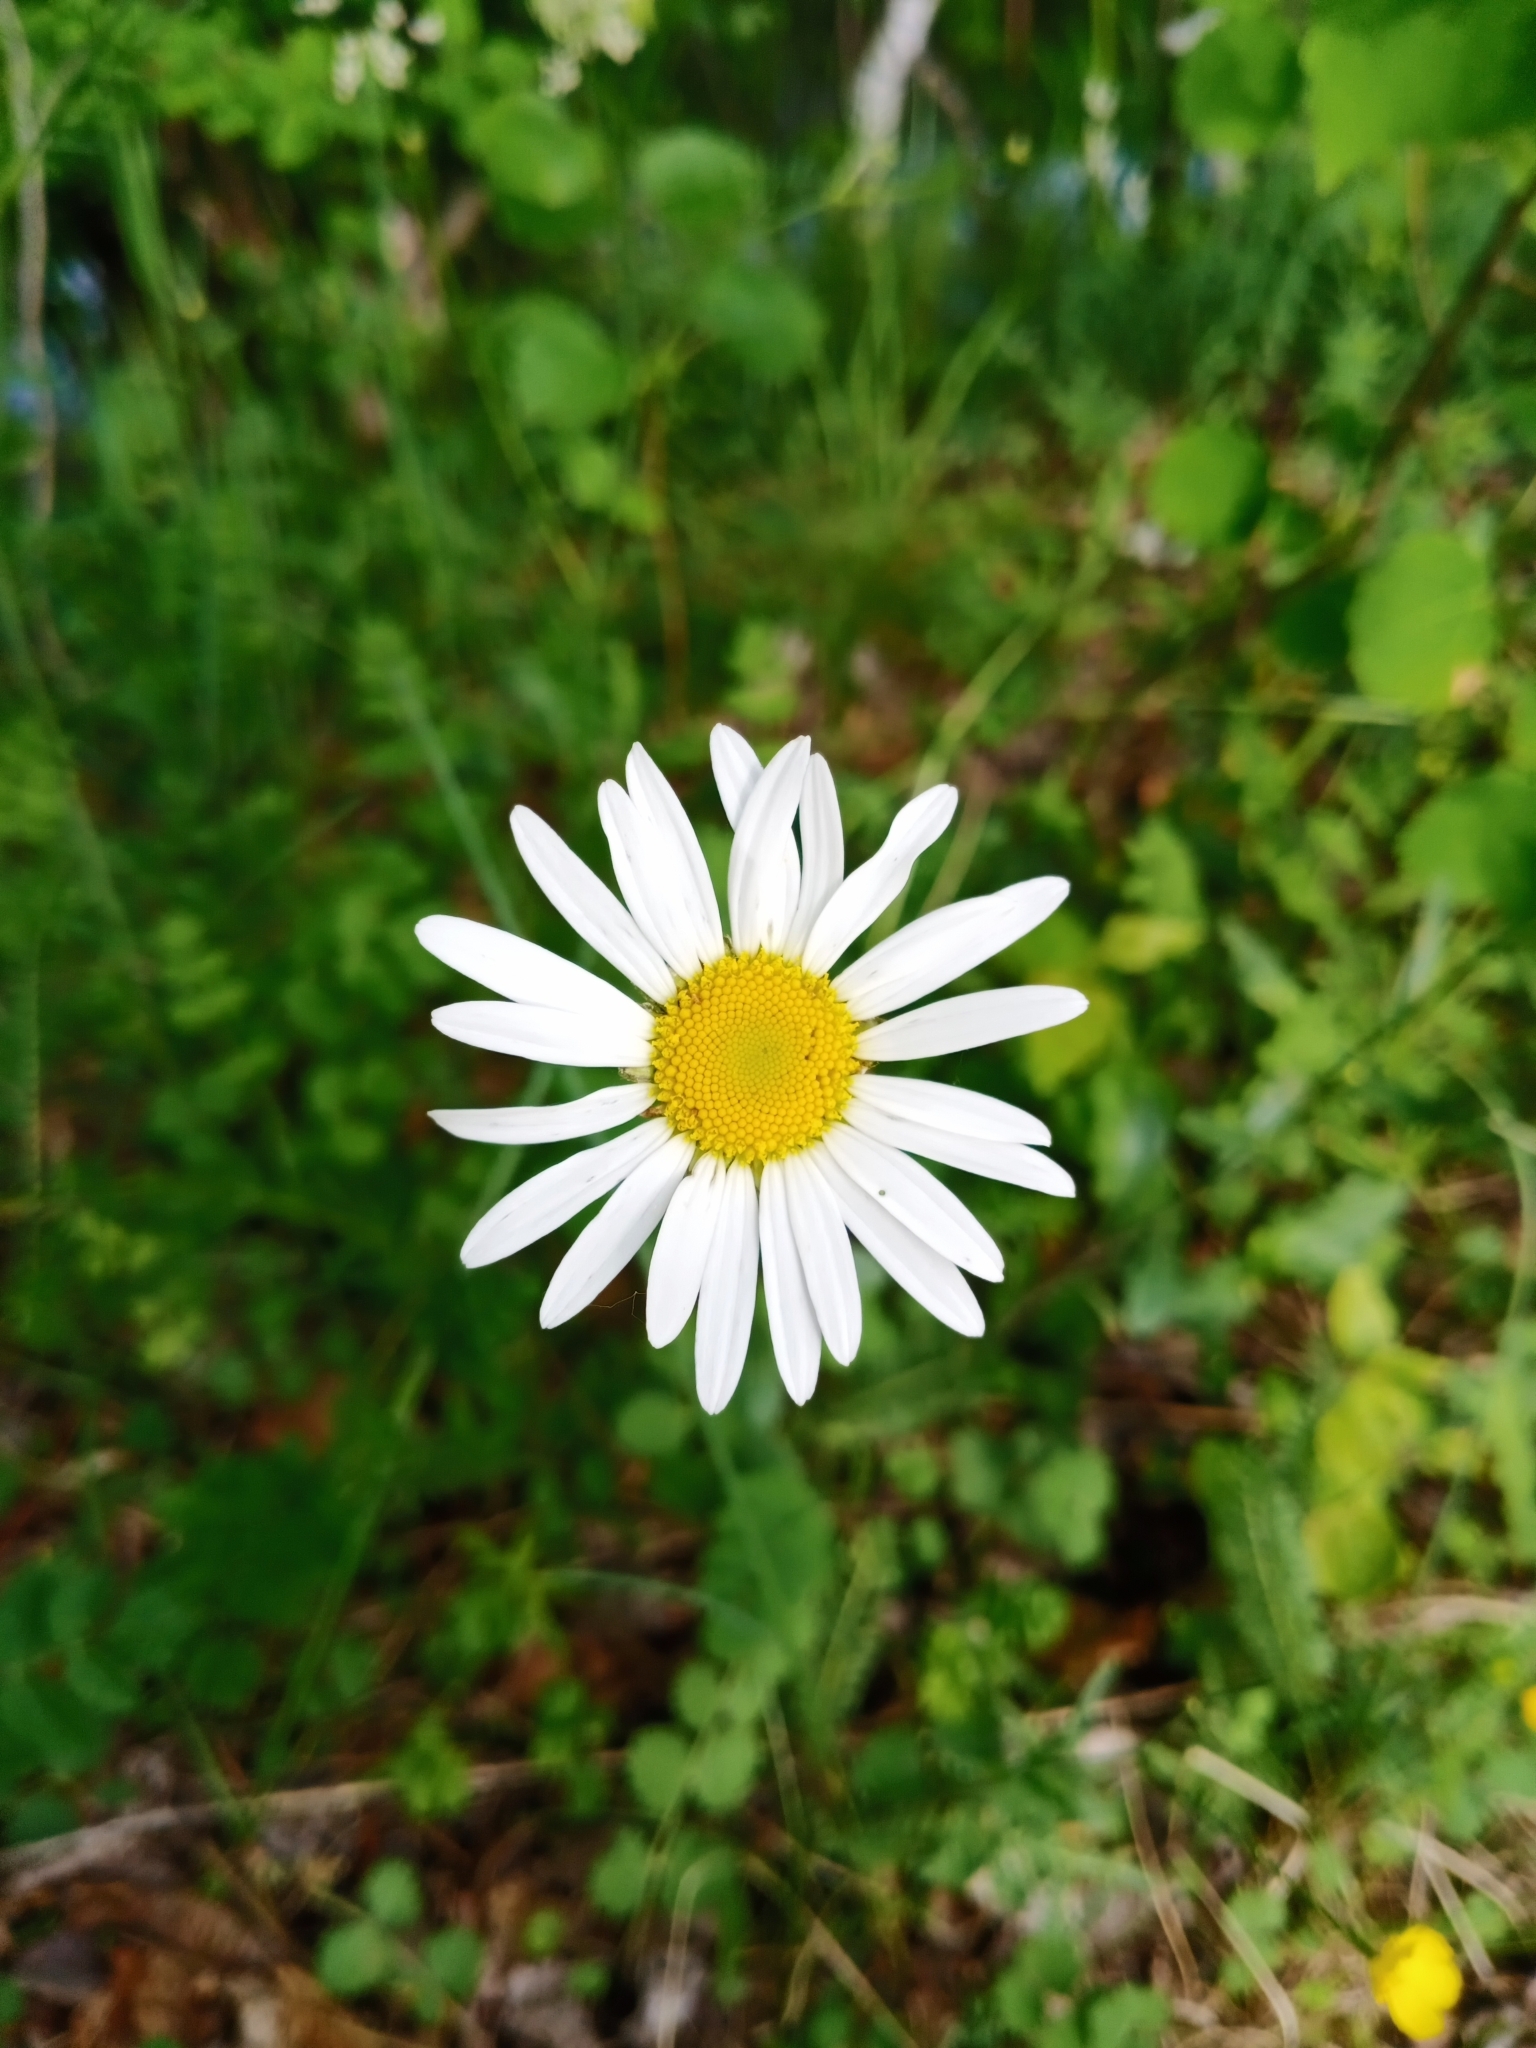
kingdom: Plantae
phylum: Tracheophyta
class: Magnoliopsida
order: Asterales
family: Asteraceae
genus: Leucanthemum
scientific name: Leucanthemum vulgare
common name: Oxeye daisy
